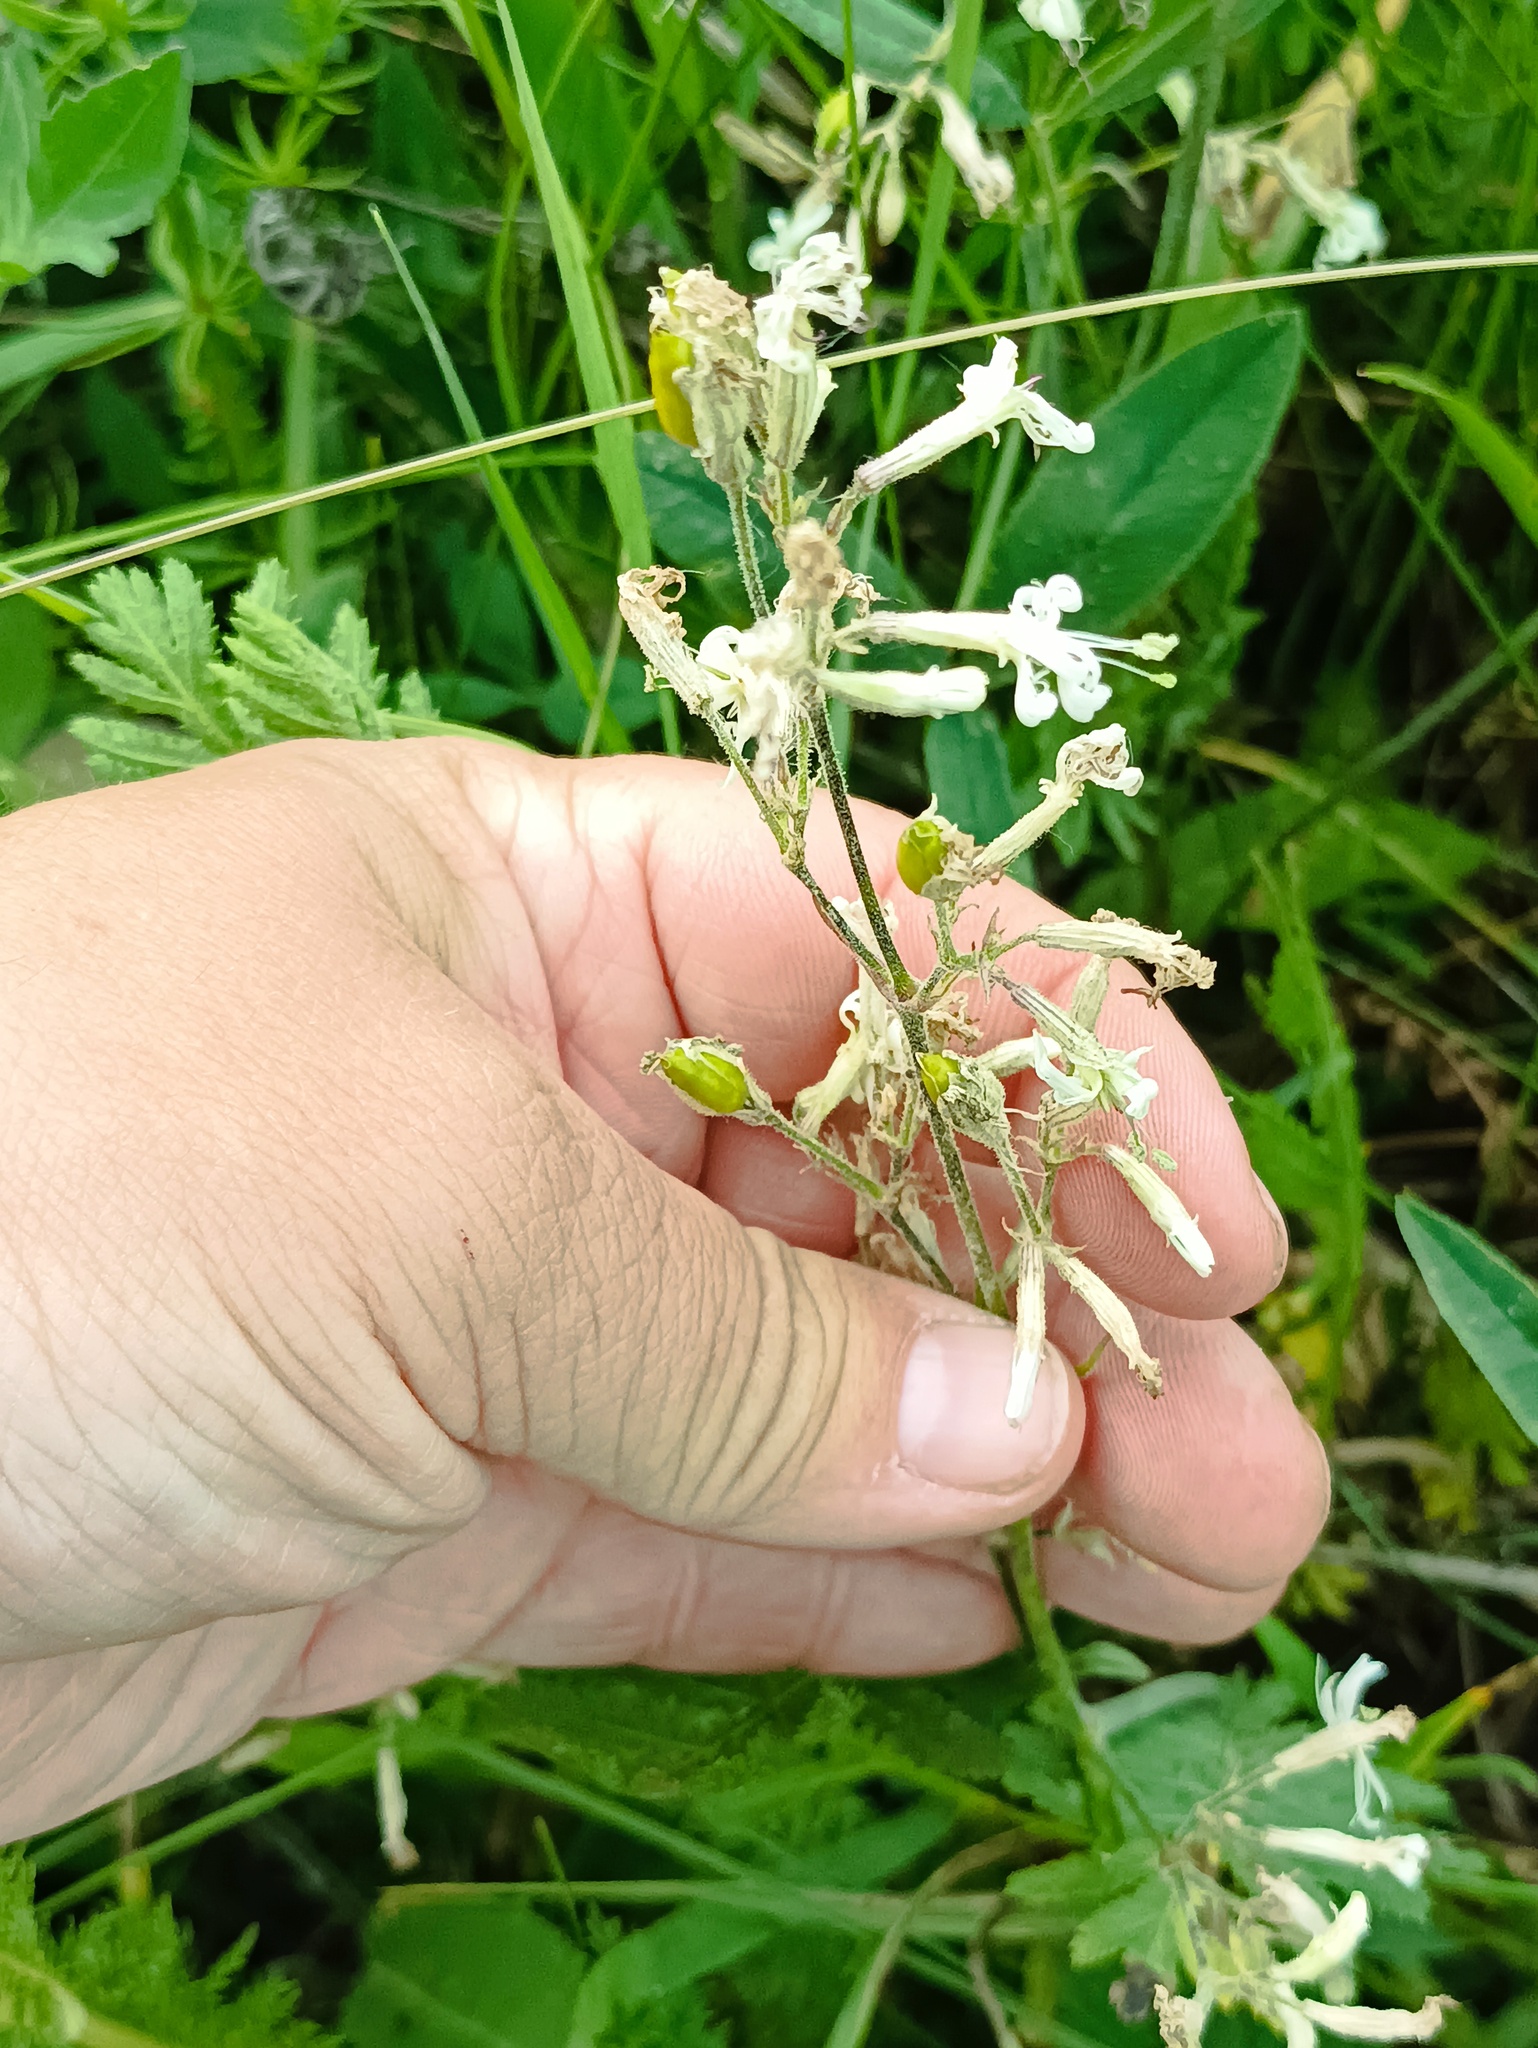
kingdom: Plantae
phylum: Tracheophyta
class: Magnoliopsida
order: Caryophyllales
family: Caryophyllaceae
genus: Silene
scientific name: Silene nutans
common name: Nottingham catchfly
